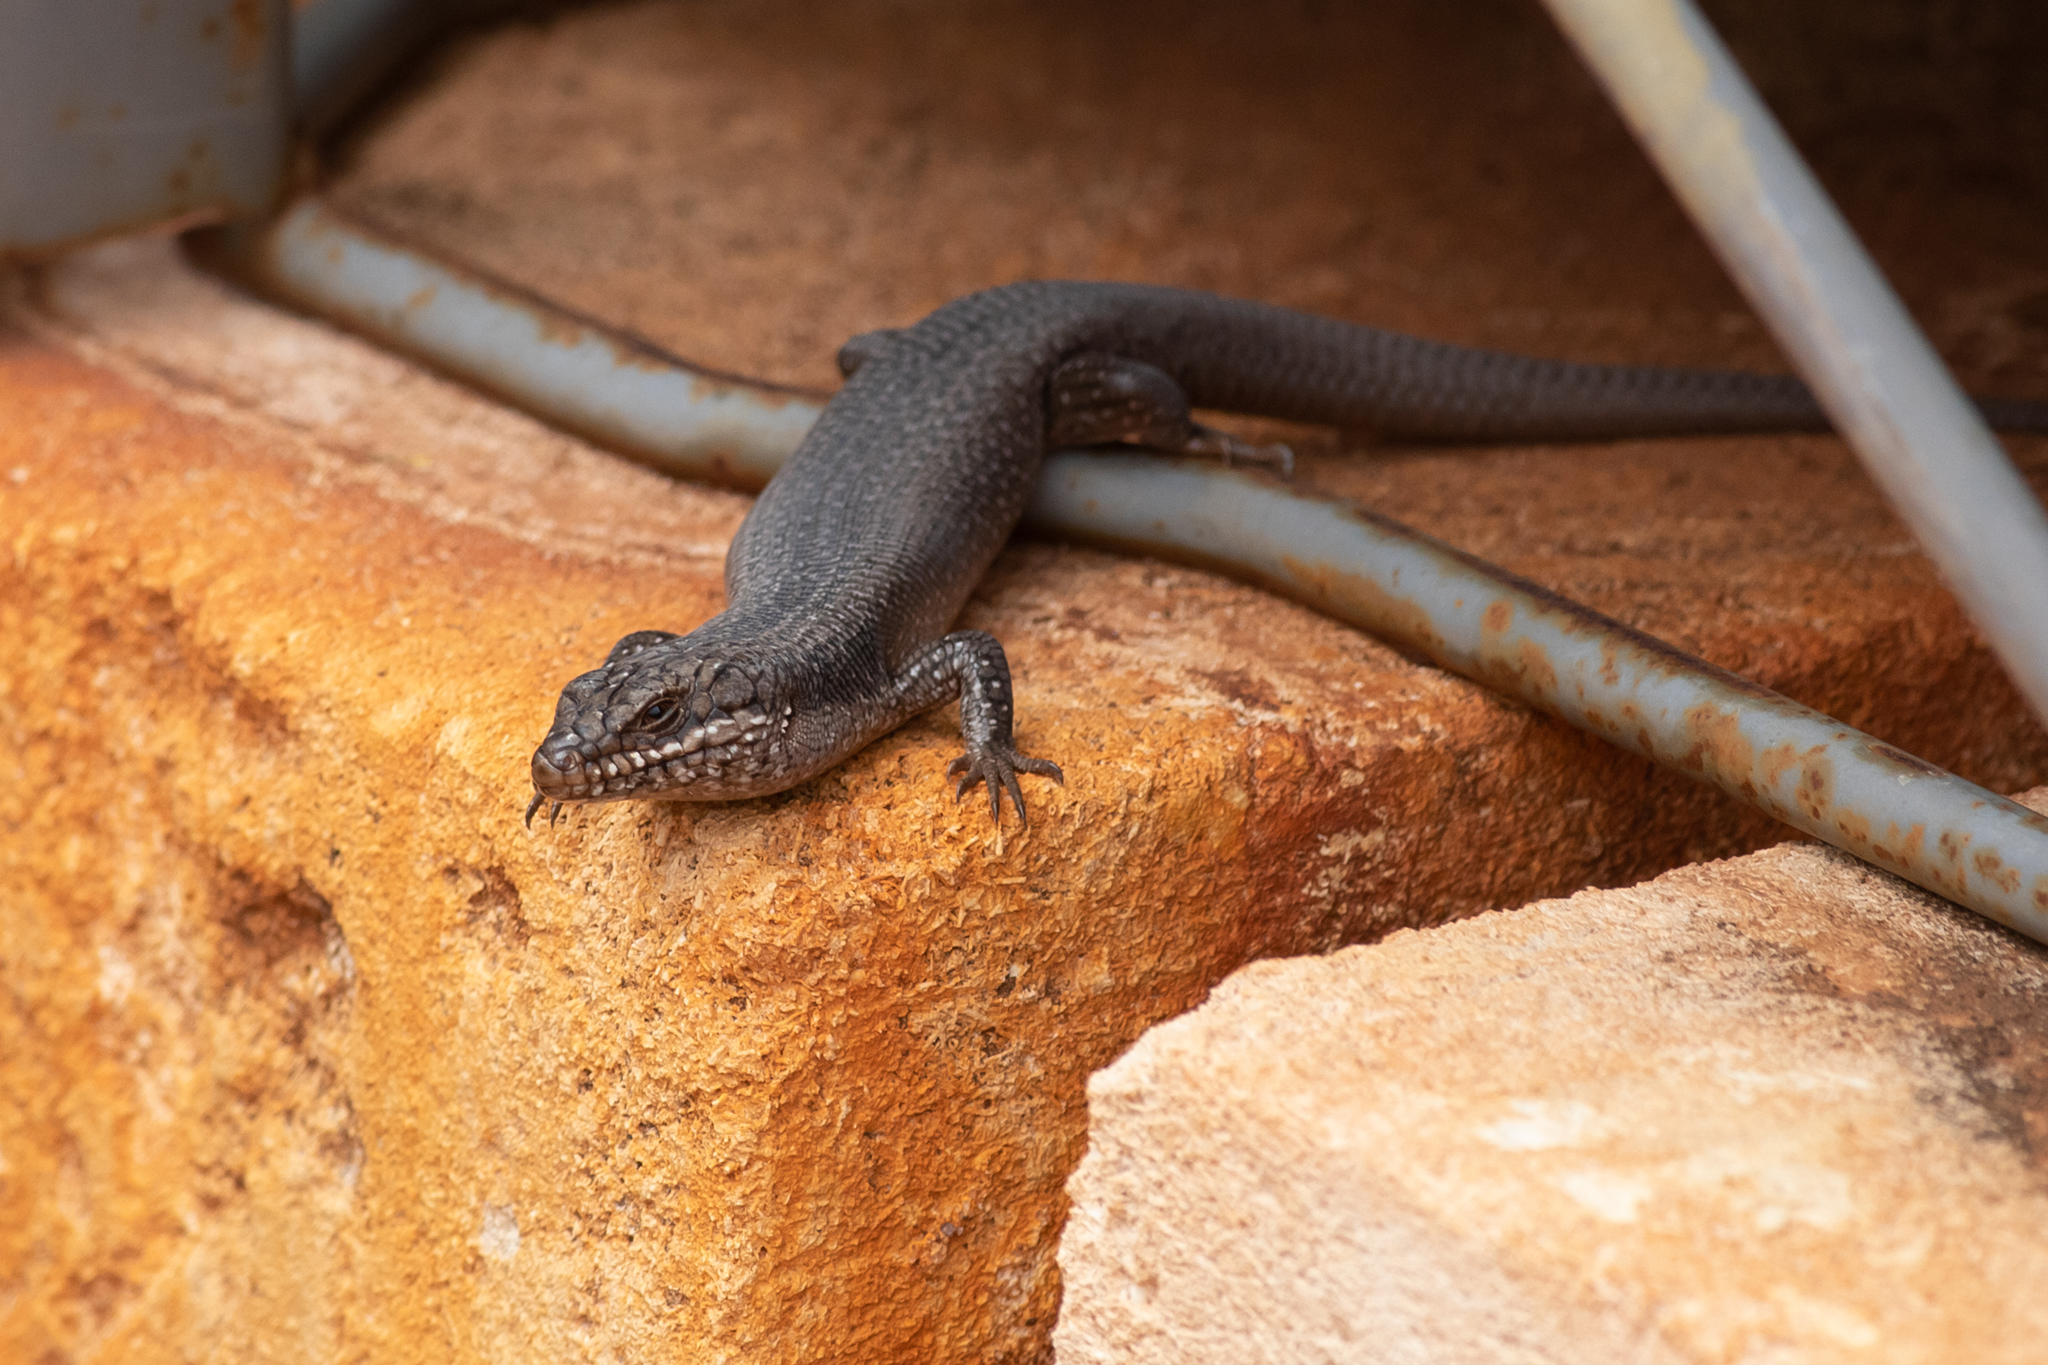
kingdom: Animalia
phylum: Chordata
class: Squamata
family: Scincidae
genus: Egernia
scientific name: Egernia striolata
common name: Tree skink
